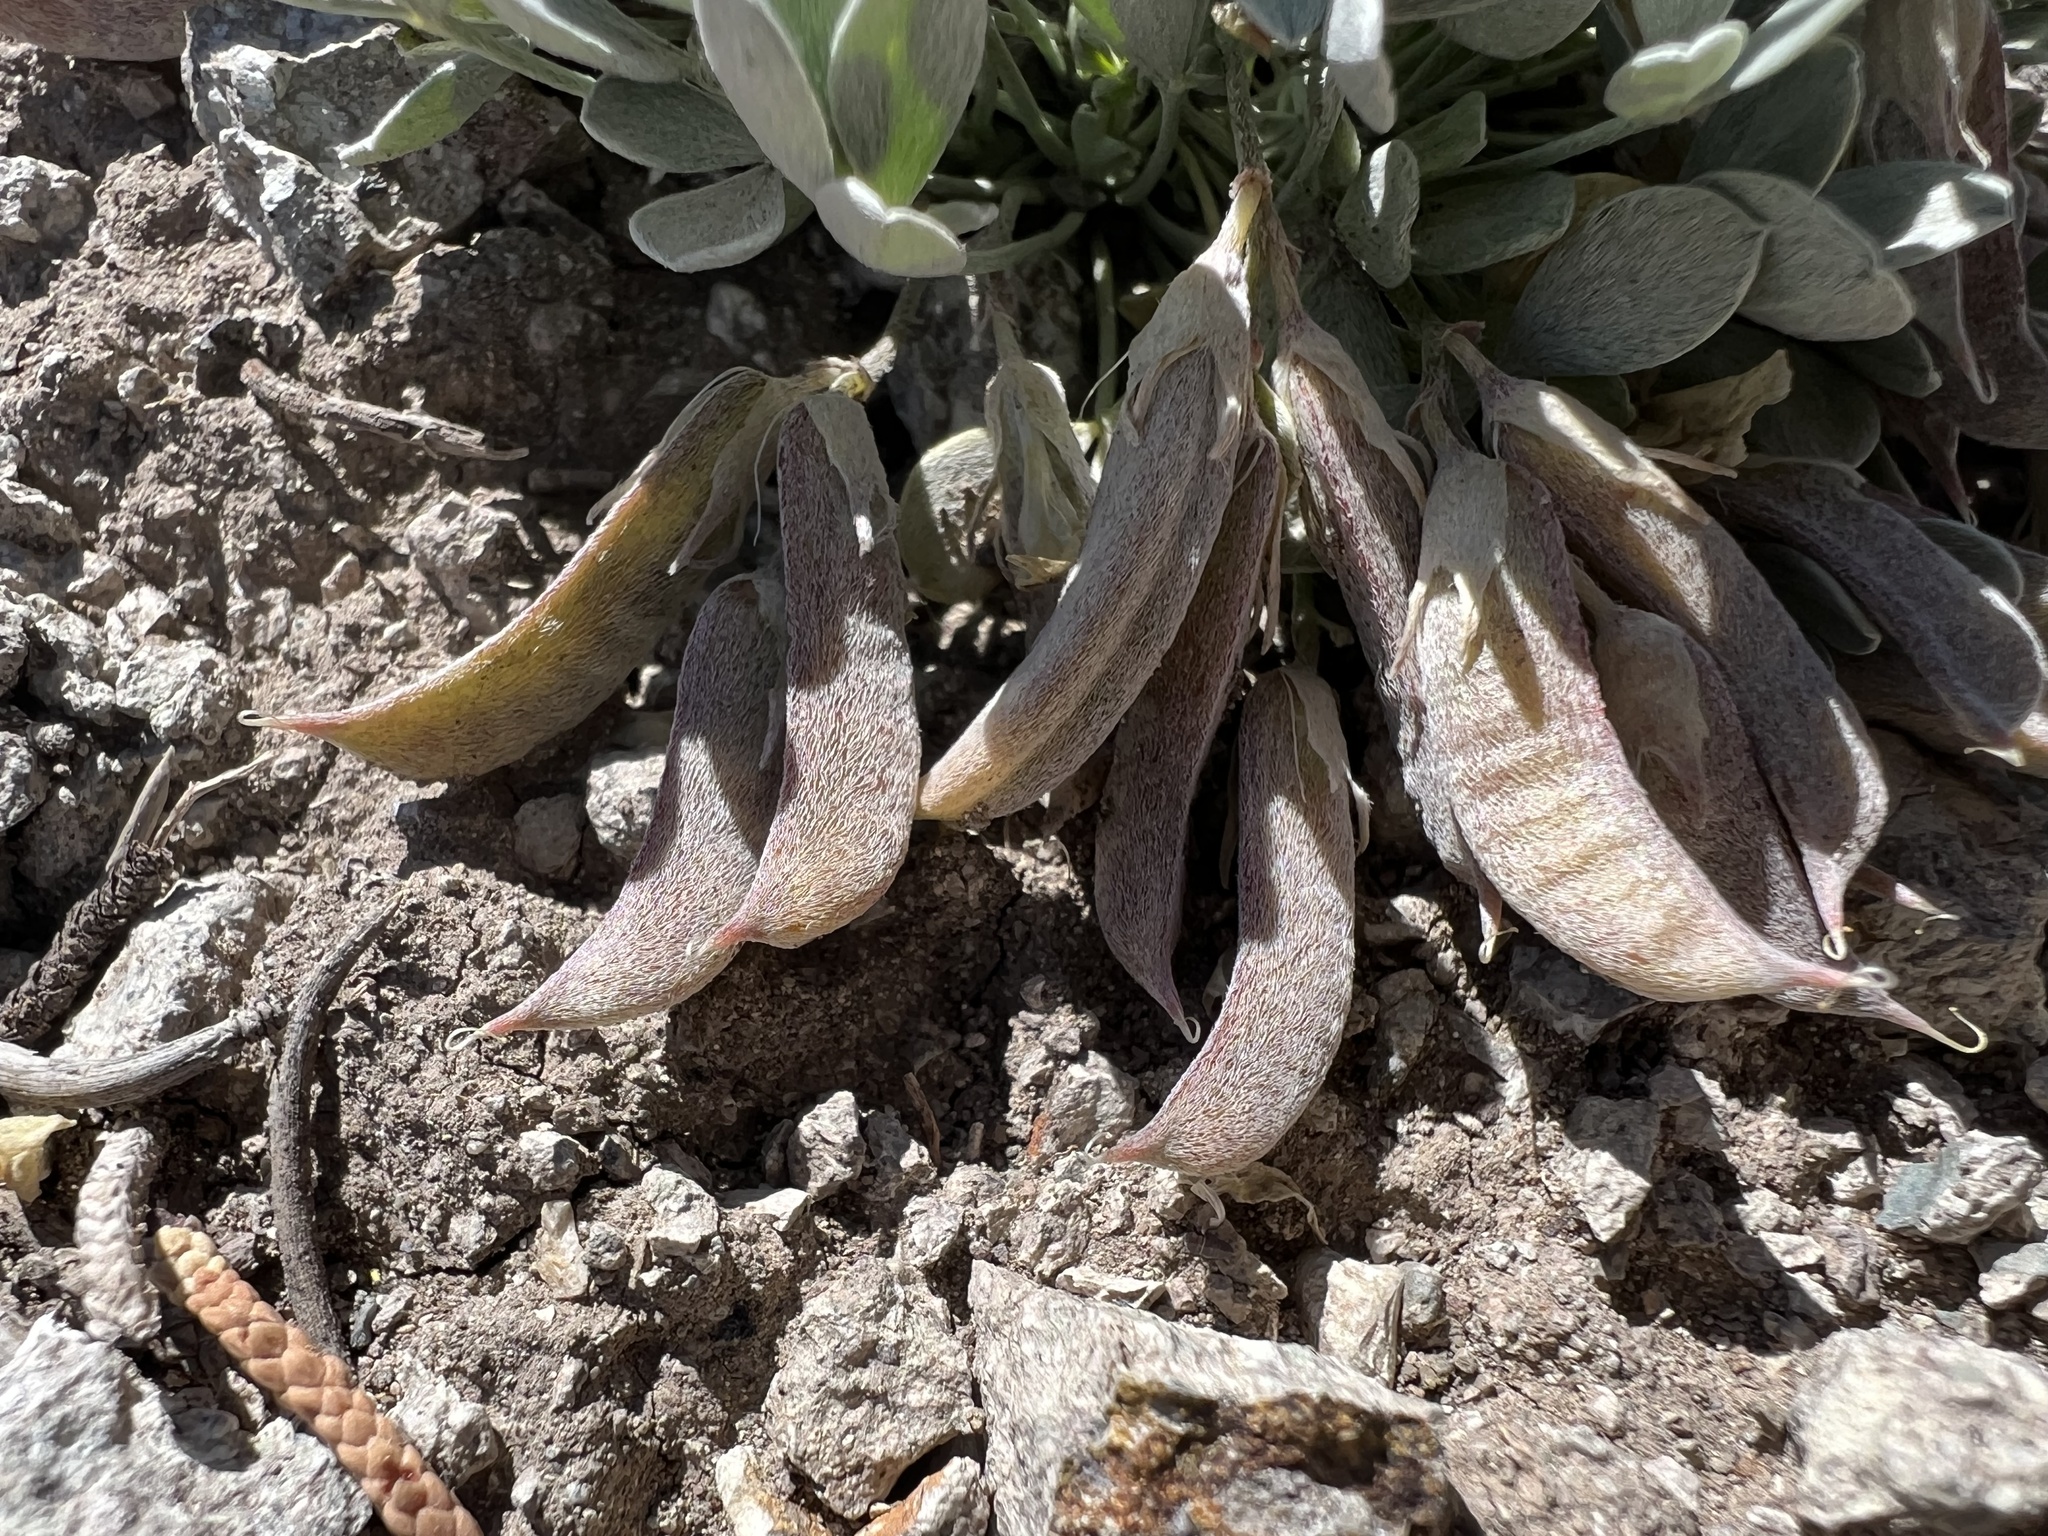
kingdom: Plantae
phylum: Tracheophyta
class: Magnoliopsida
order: Fabales
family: Fabaceae
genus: Astragalus
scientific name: Astragalus calycosus
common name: King's milkvetch
